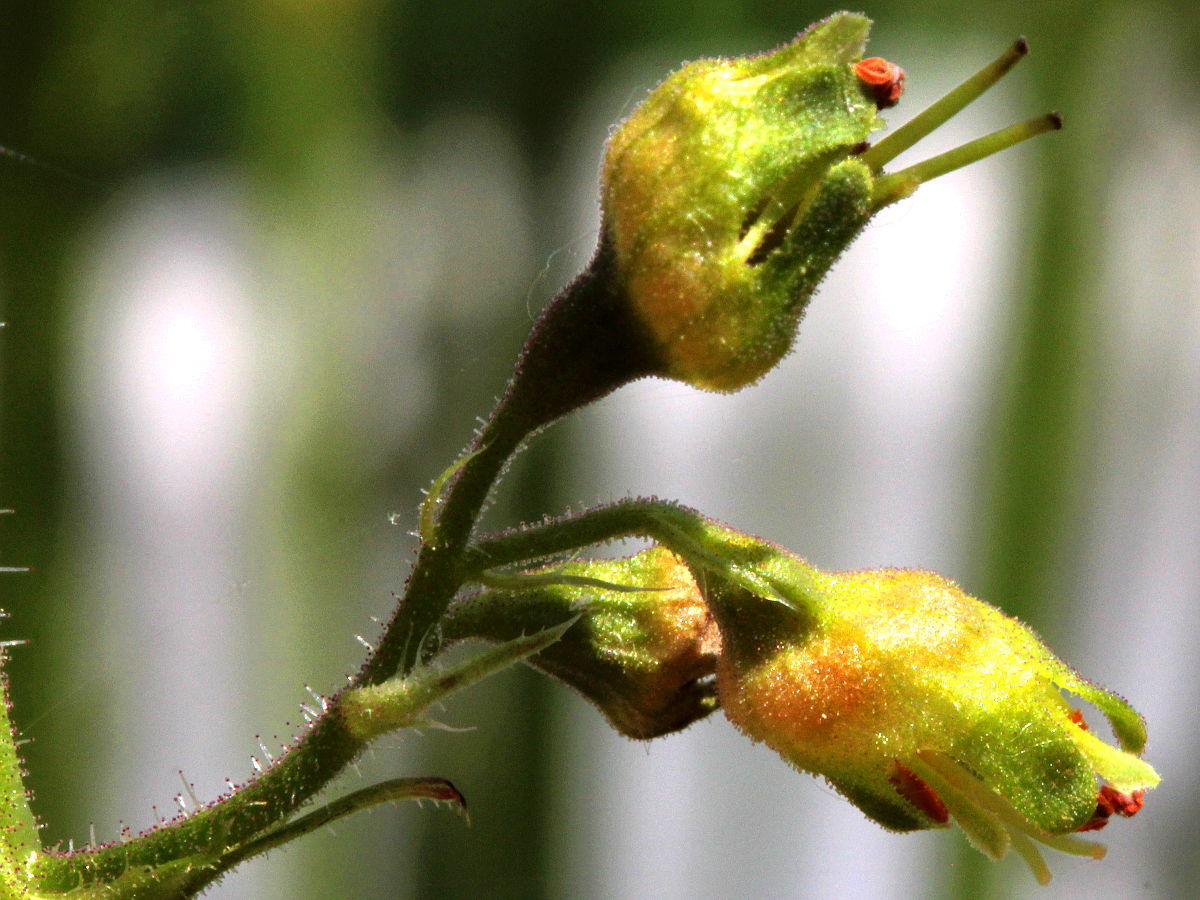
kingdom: Plantae
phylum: Tracheophyta
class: Magnoliopsida
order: Saxifragales
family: Saxifragaceae
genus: Heuchera
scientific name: Heuchera richardsonii
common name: Richardson's alumroot
